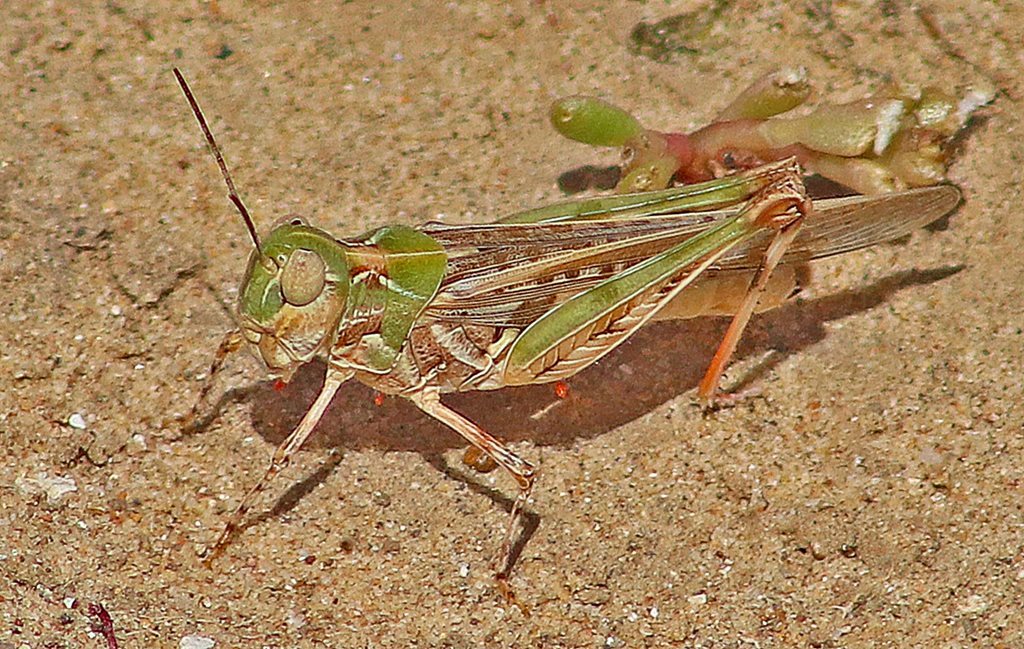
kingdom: Animalia
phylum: Arthropoda
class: Insecta
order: Orthoptera
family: Acrididae
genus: Chortoicetes
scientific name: Chortoicetes terminifera
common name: Australian plague locust
